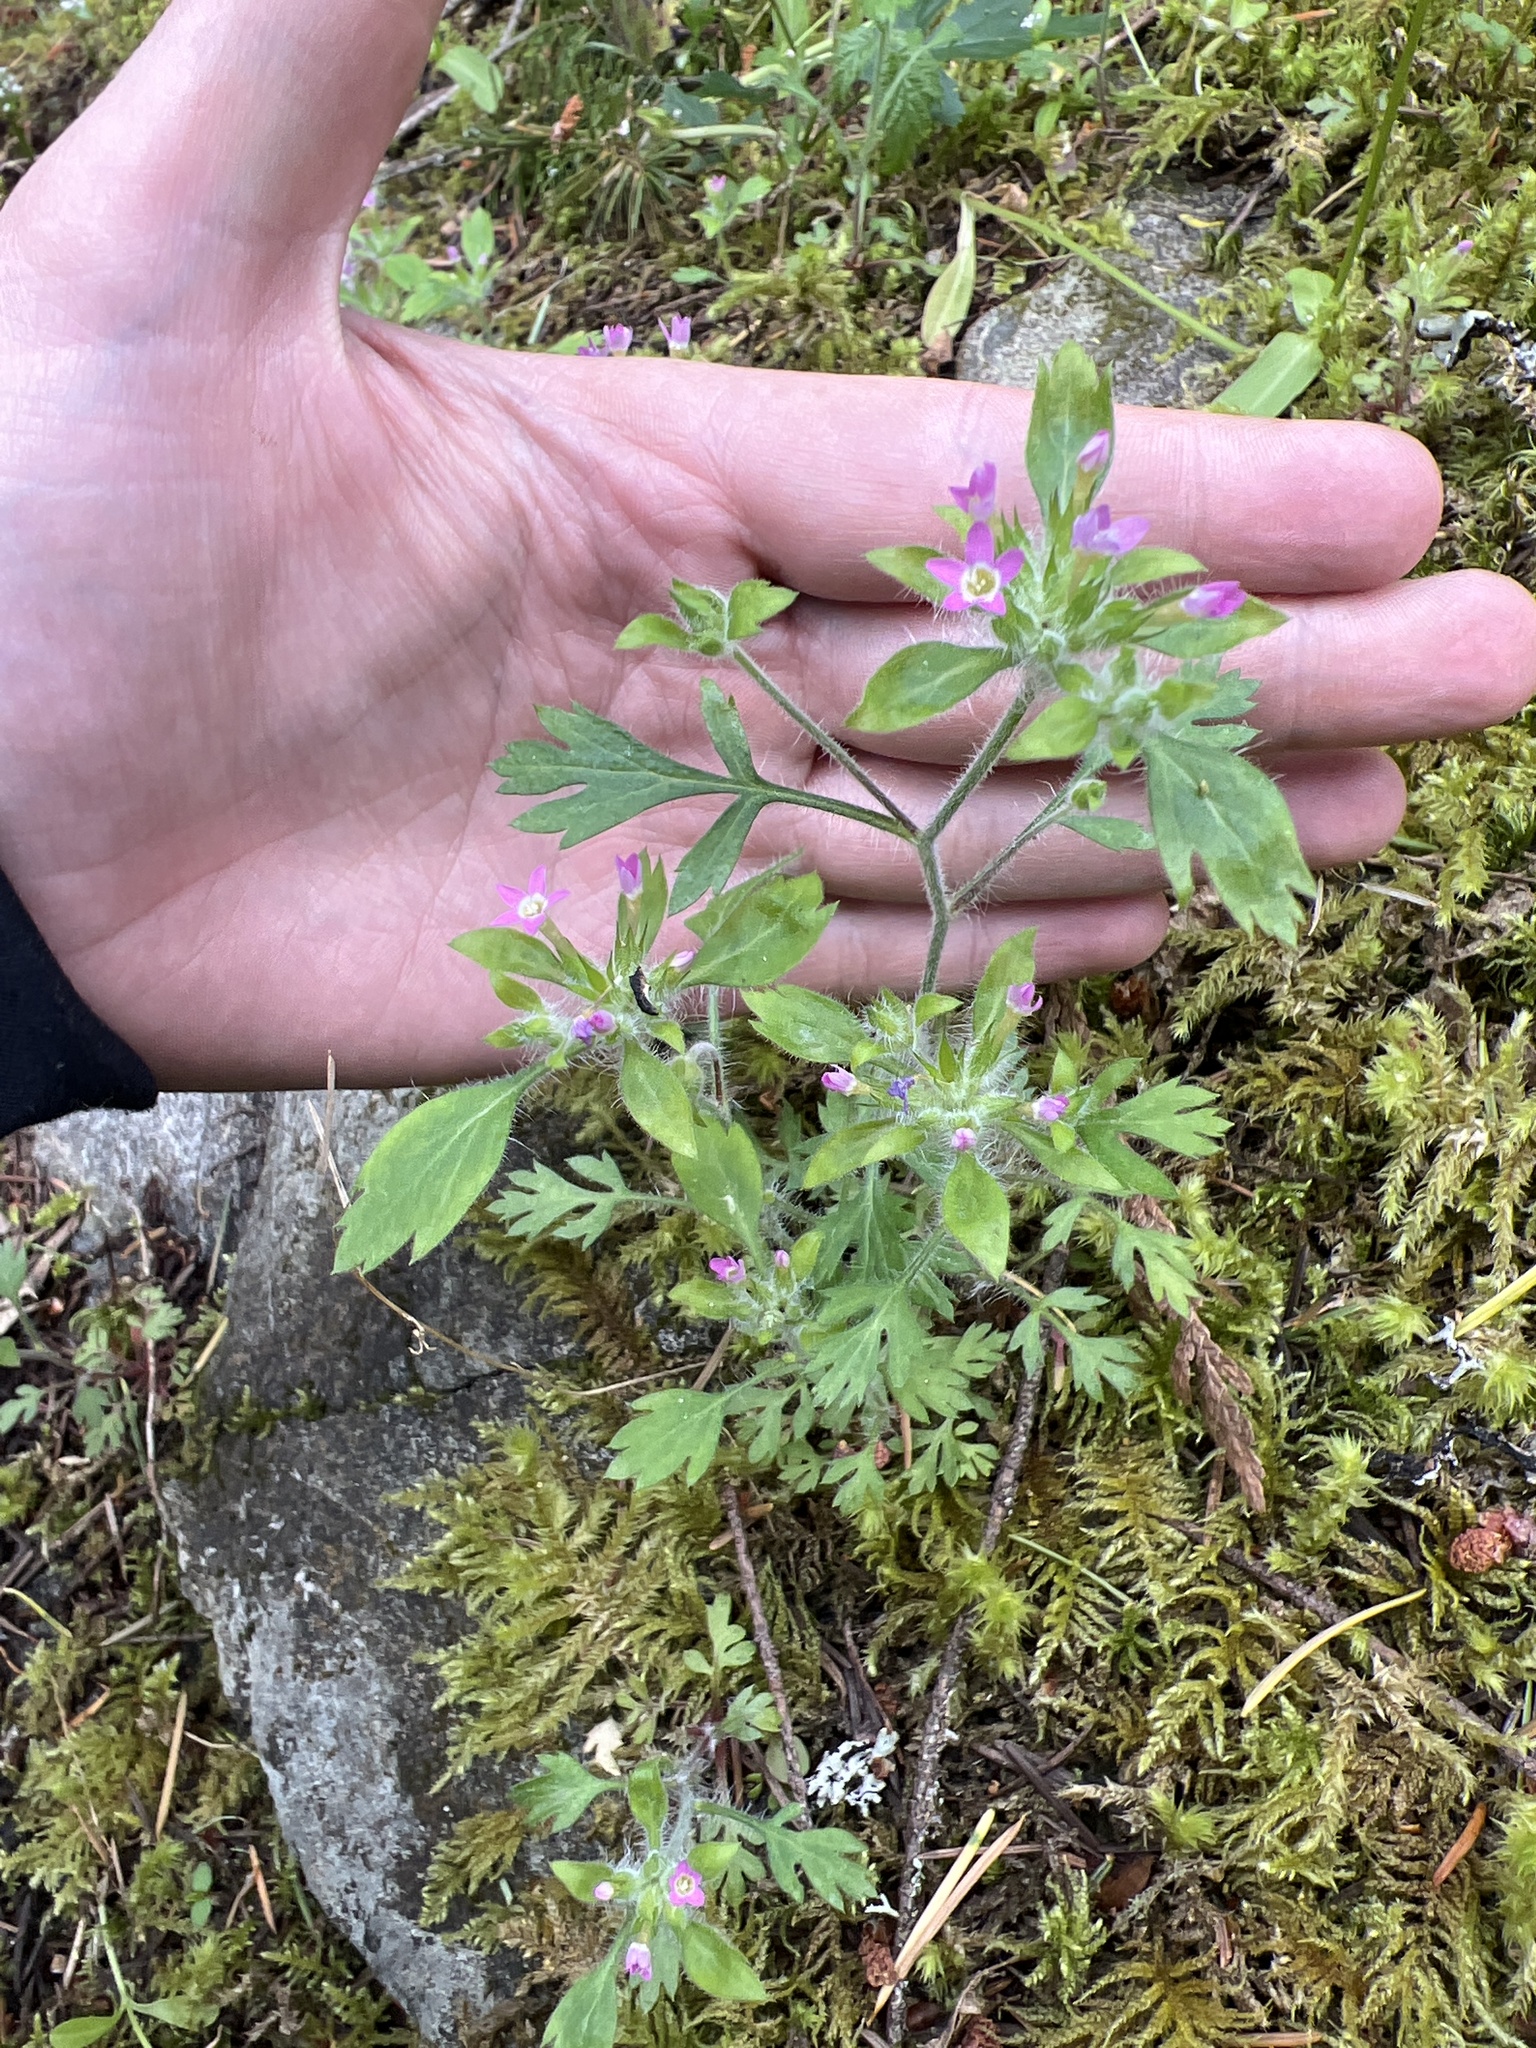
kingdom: Plantae
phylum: Tracheophyta
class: Magnoliopsida
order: Ericales
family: Polemoniaceae
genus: Collomia
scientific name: Collomia heterophylla
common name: Variable-leaved collomia
